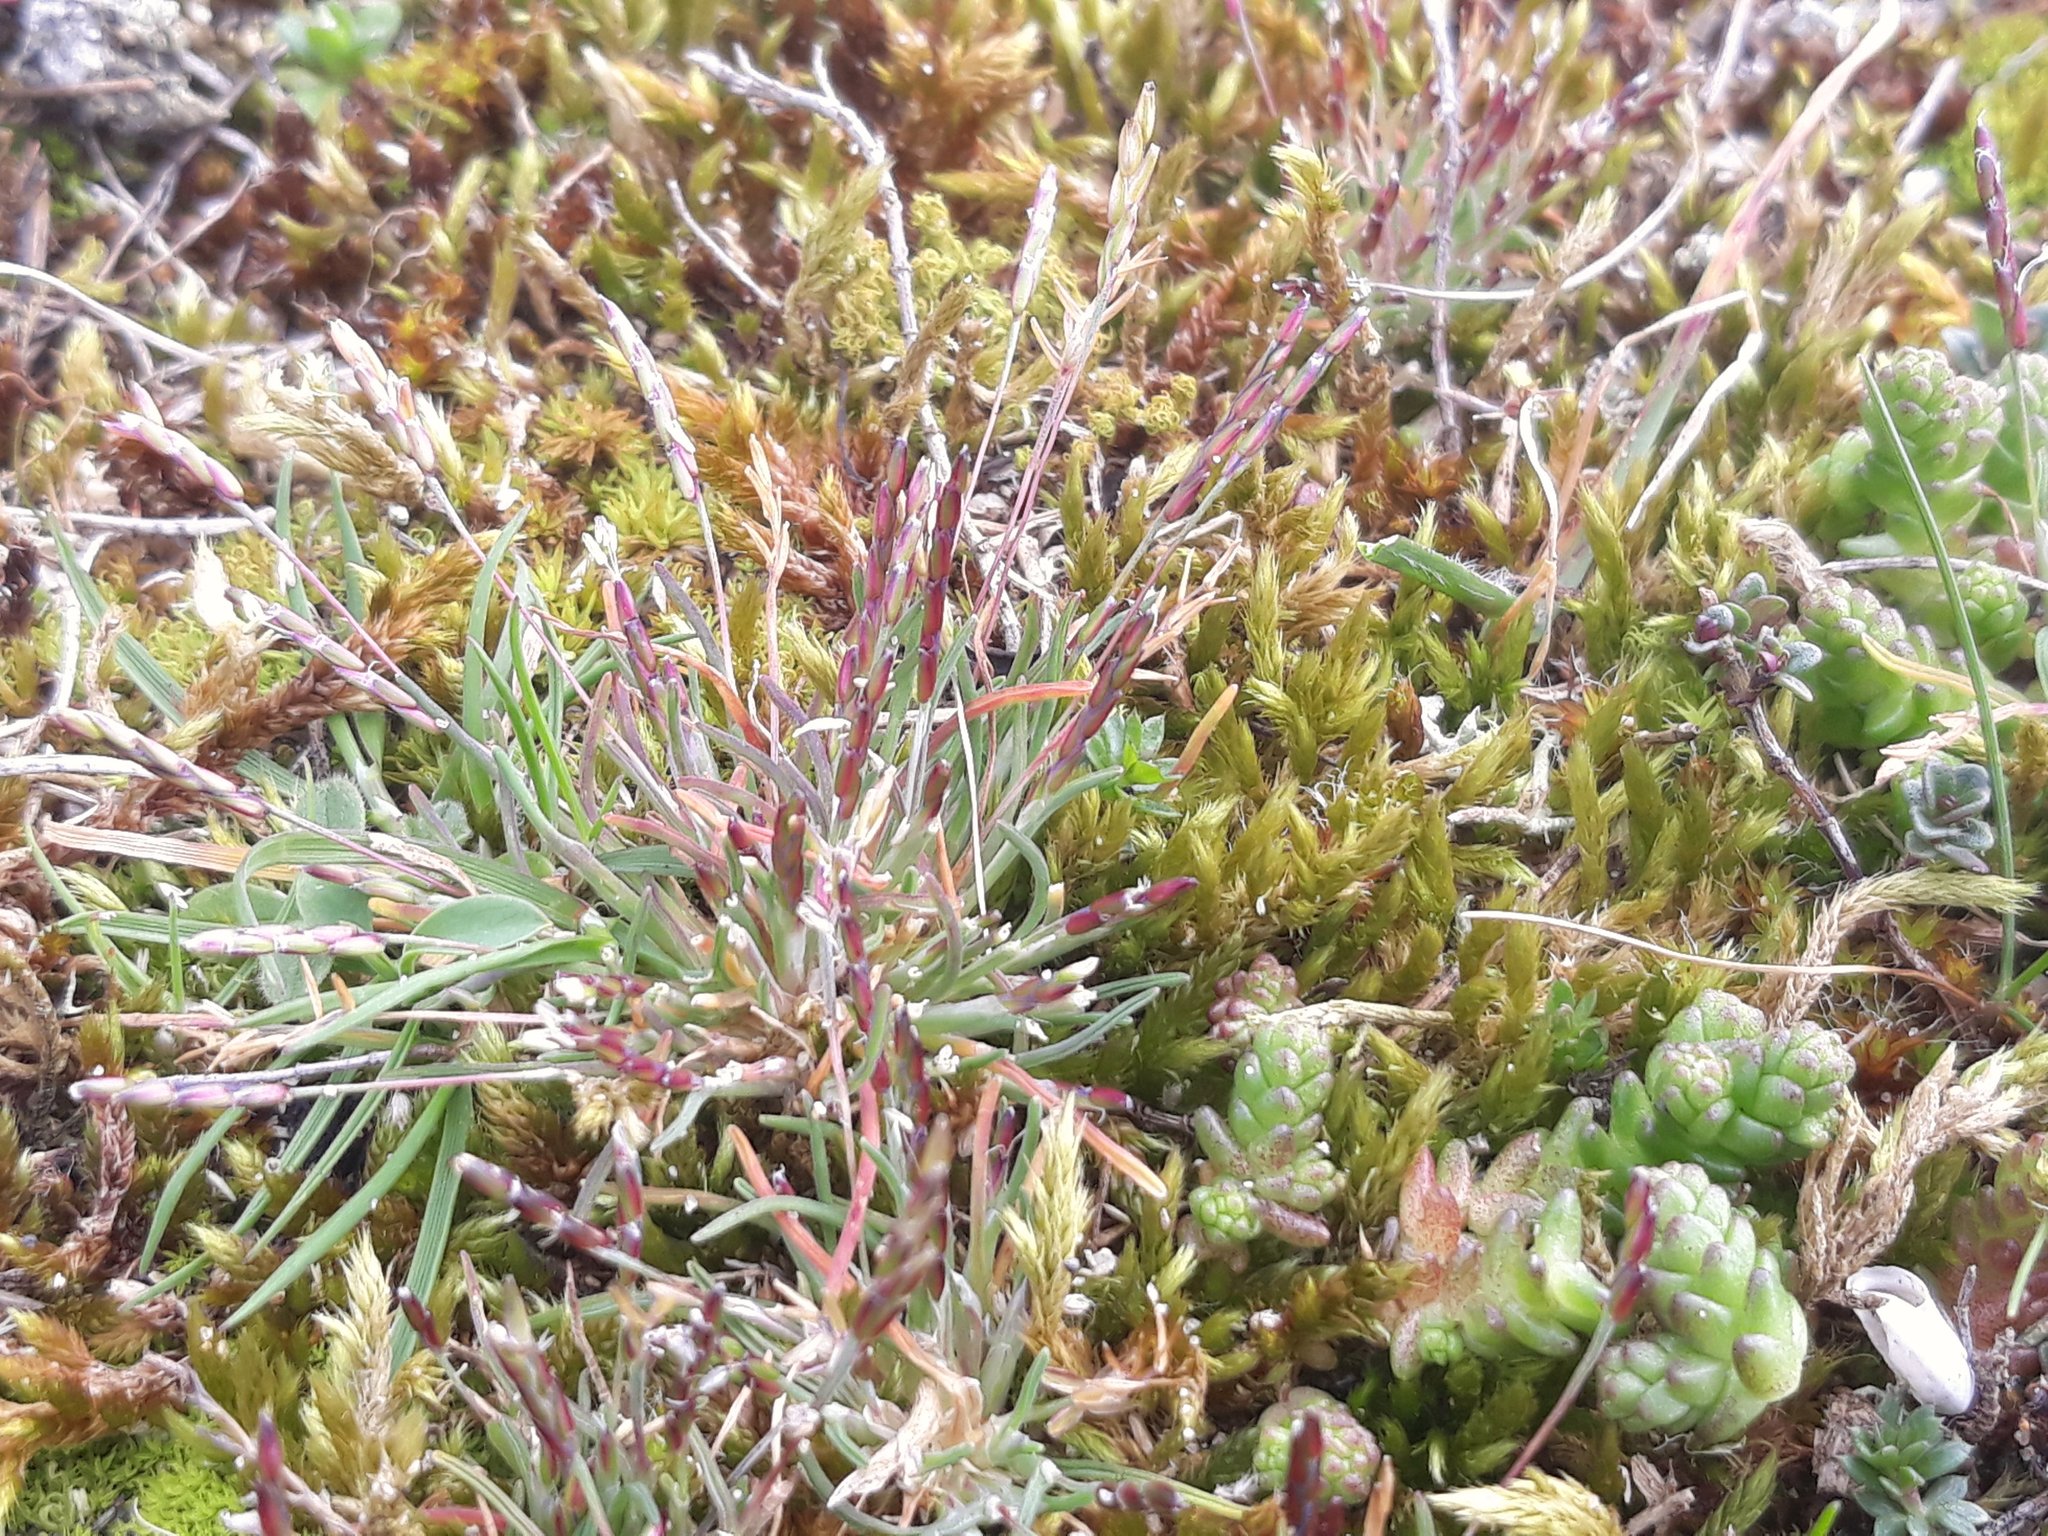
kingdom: Plantae
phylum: Tracheophyta
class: Liliopsida
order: Poales
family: Poaceae
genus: Mibora
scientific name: Mibora minima
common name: Early sand-grass
